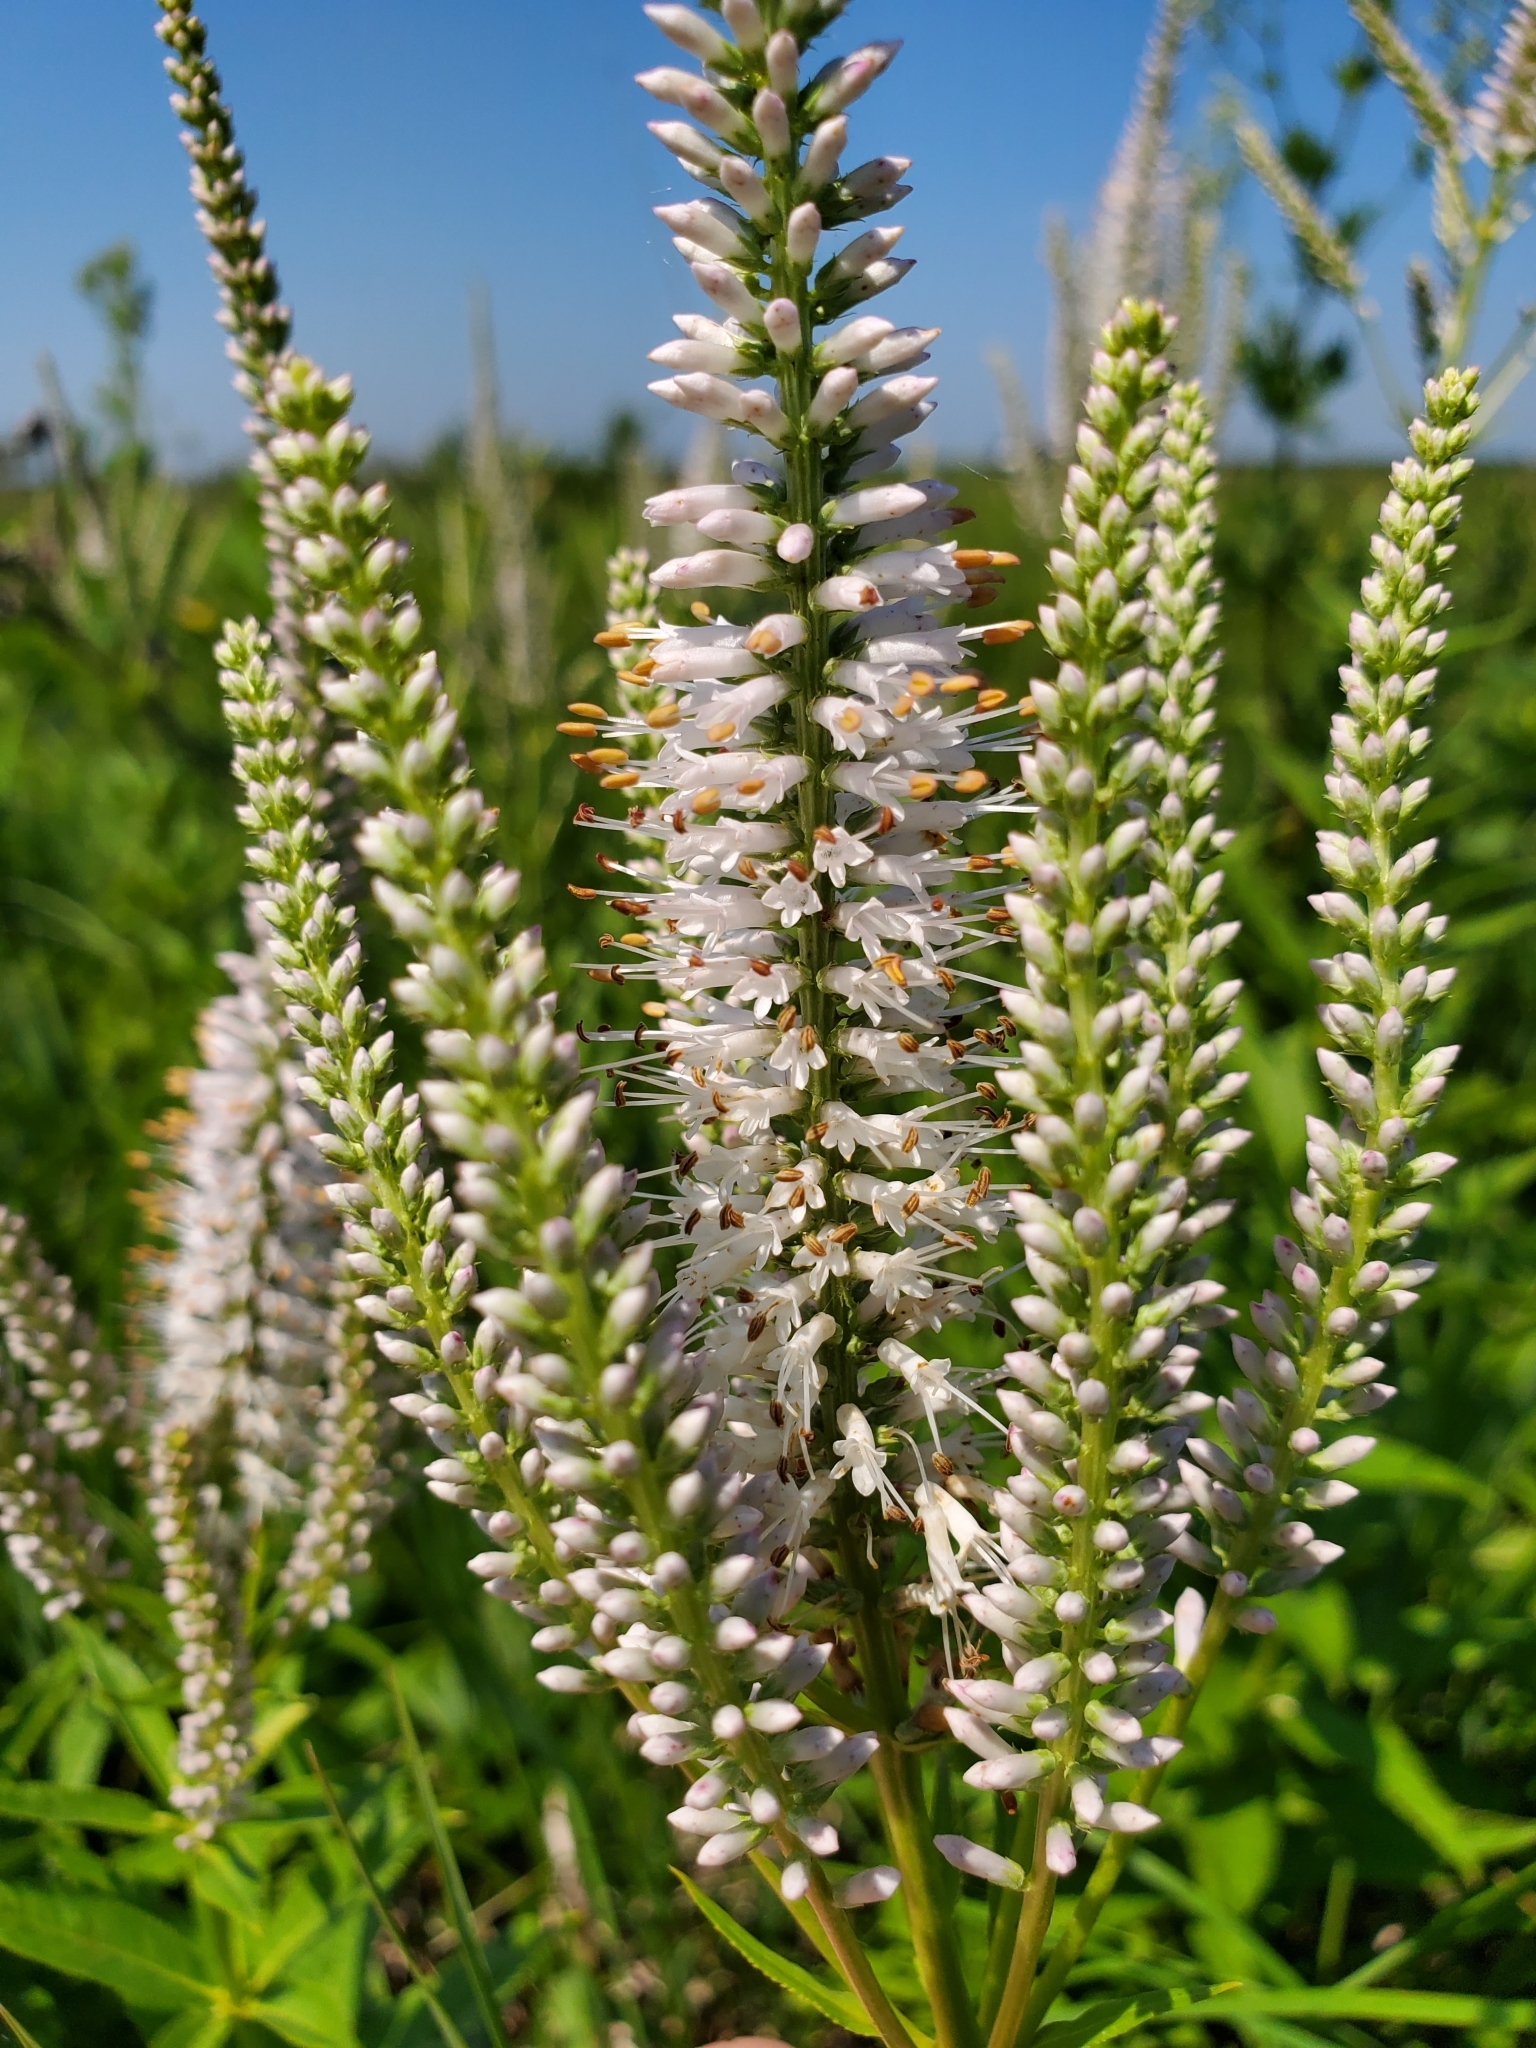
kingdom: Plantae
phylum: Tracheophyta
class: Magnoliopsida
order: Lamiales
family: Plantaginaceae
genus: Veronicastrum
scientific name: Veronicastrum virginicum
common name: Blackroot
